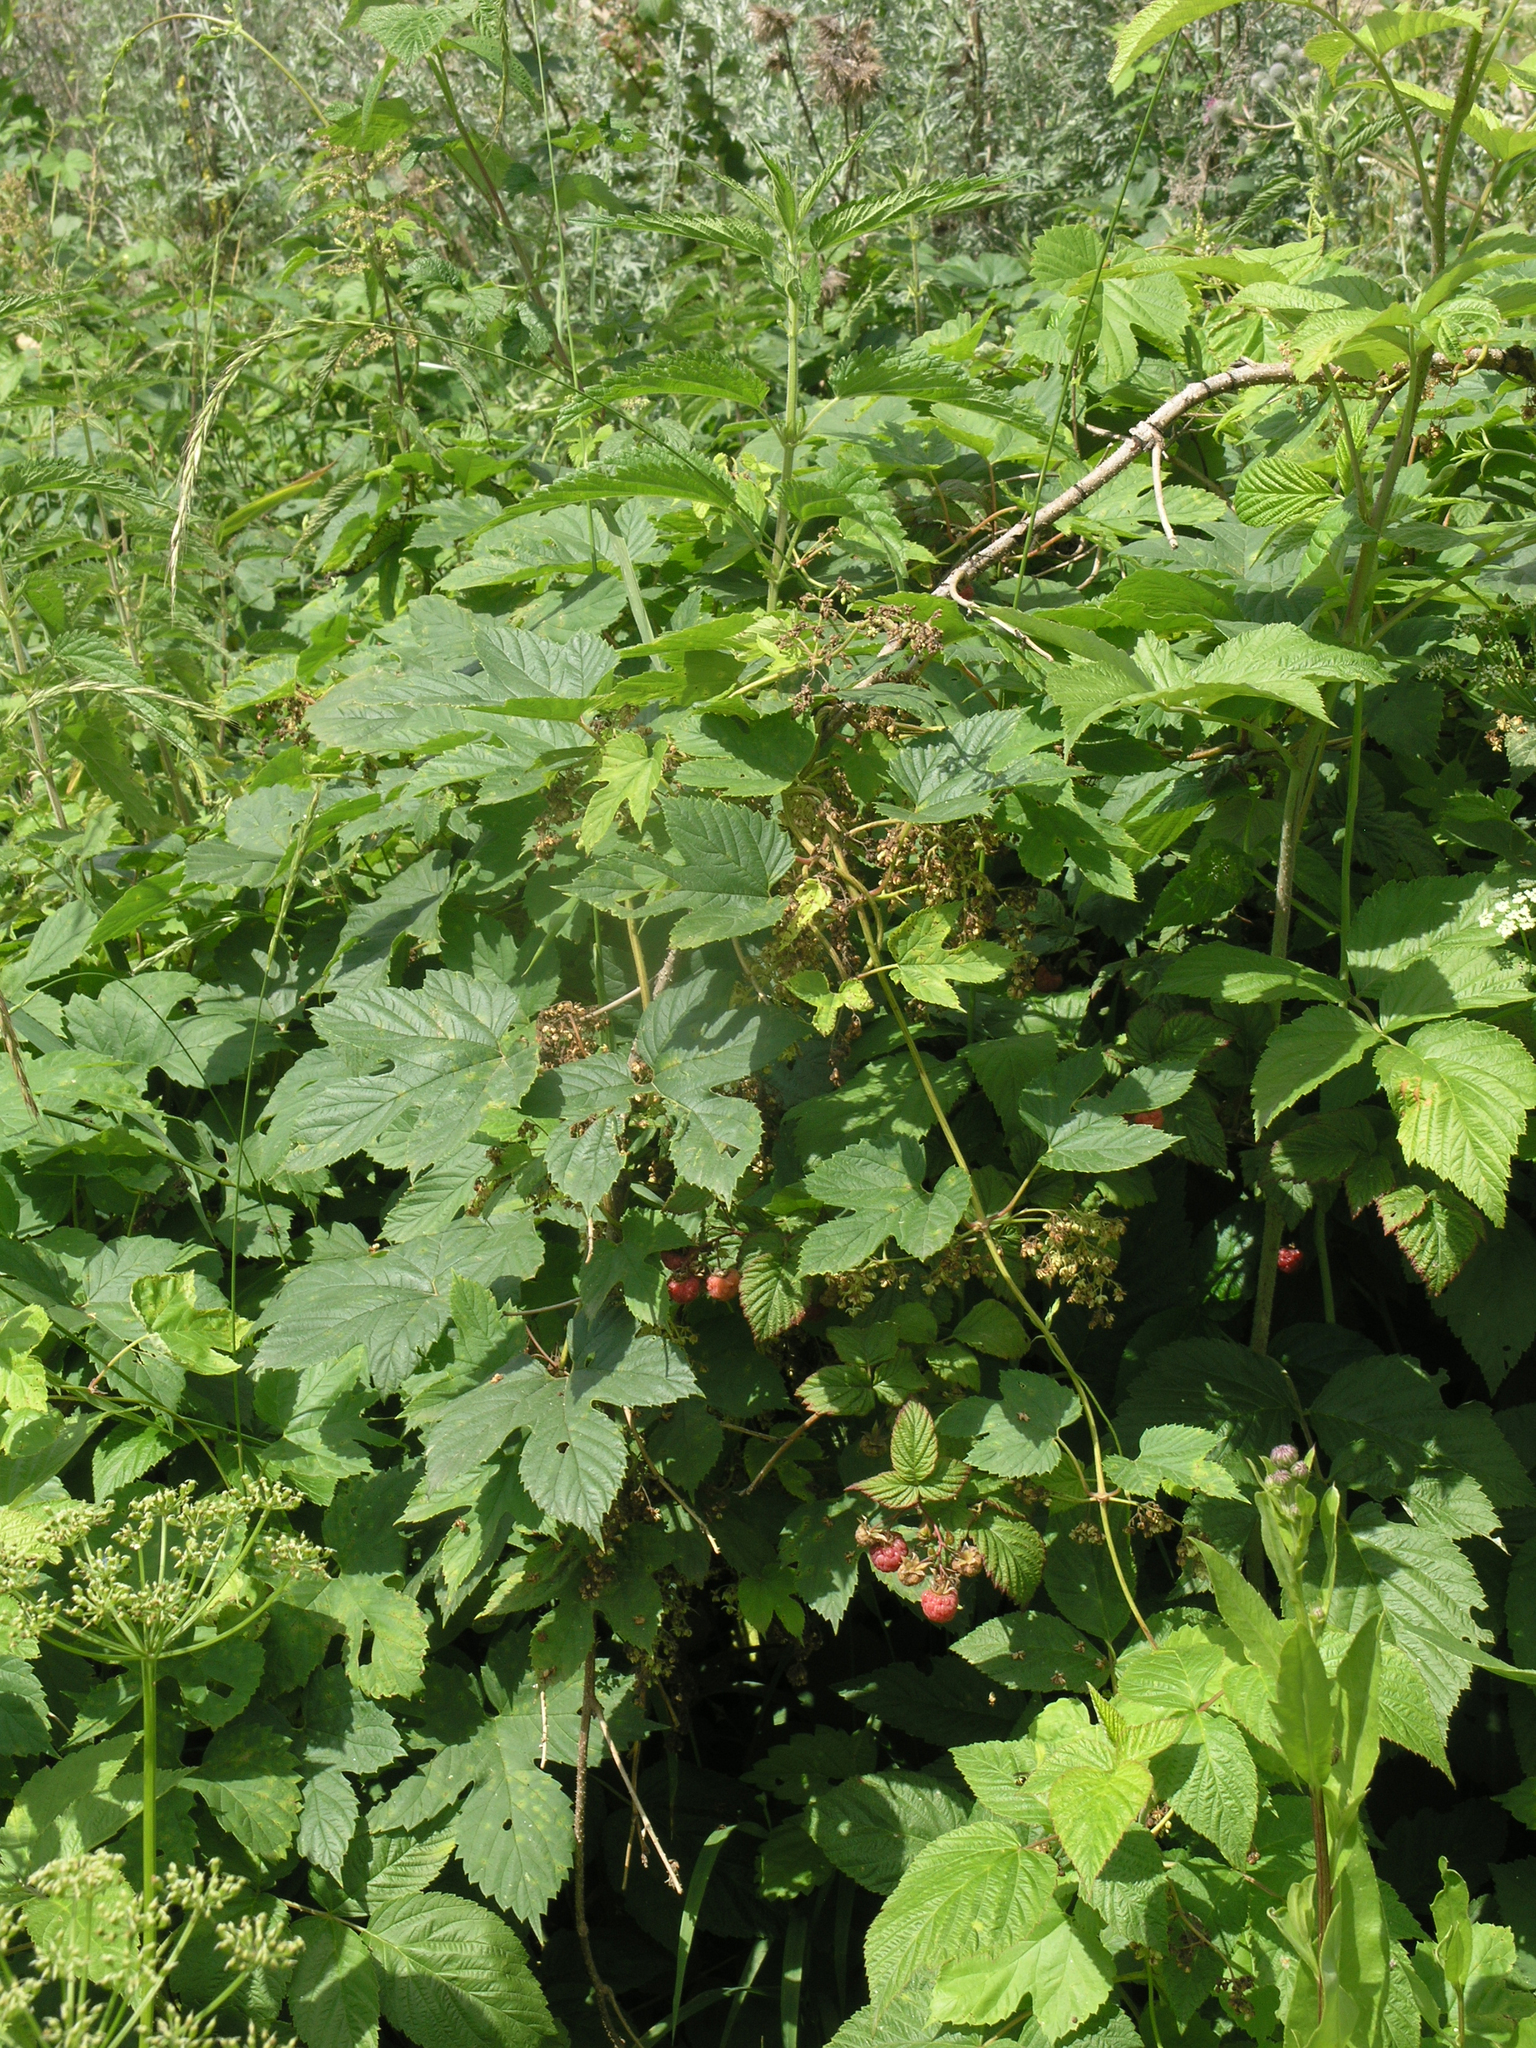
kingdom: Plantae
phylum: Tracheophyta
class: Magnoliopsida
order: Rosales
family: Rosaceae
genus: Rubus
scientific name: Rubus idaeus
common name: Raspberry
